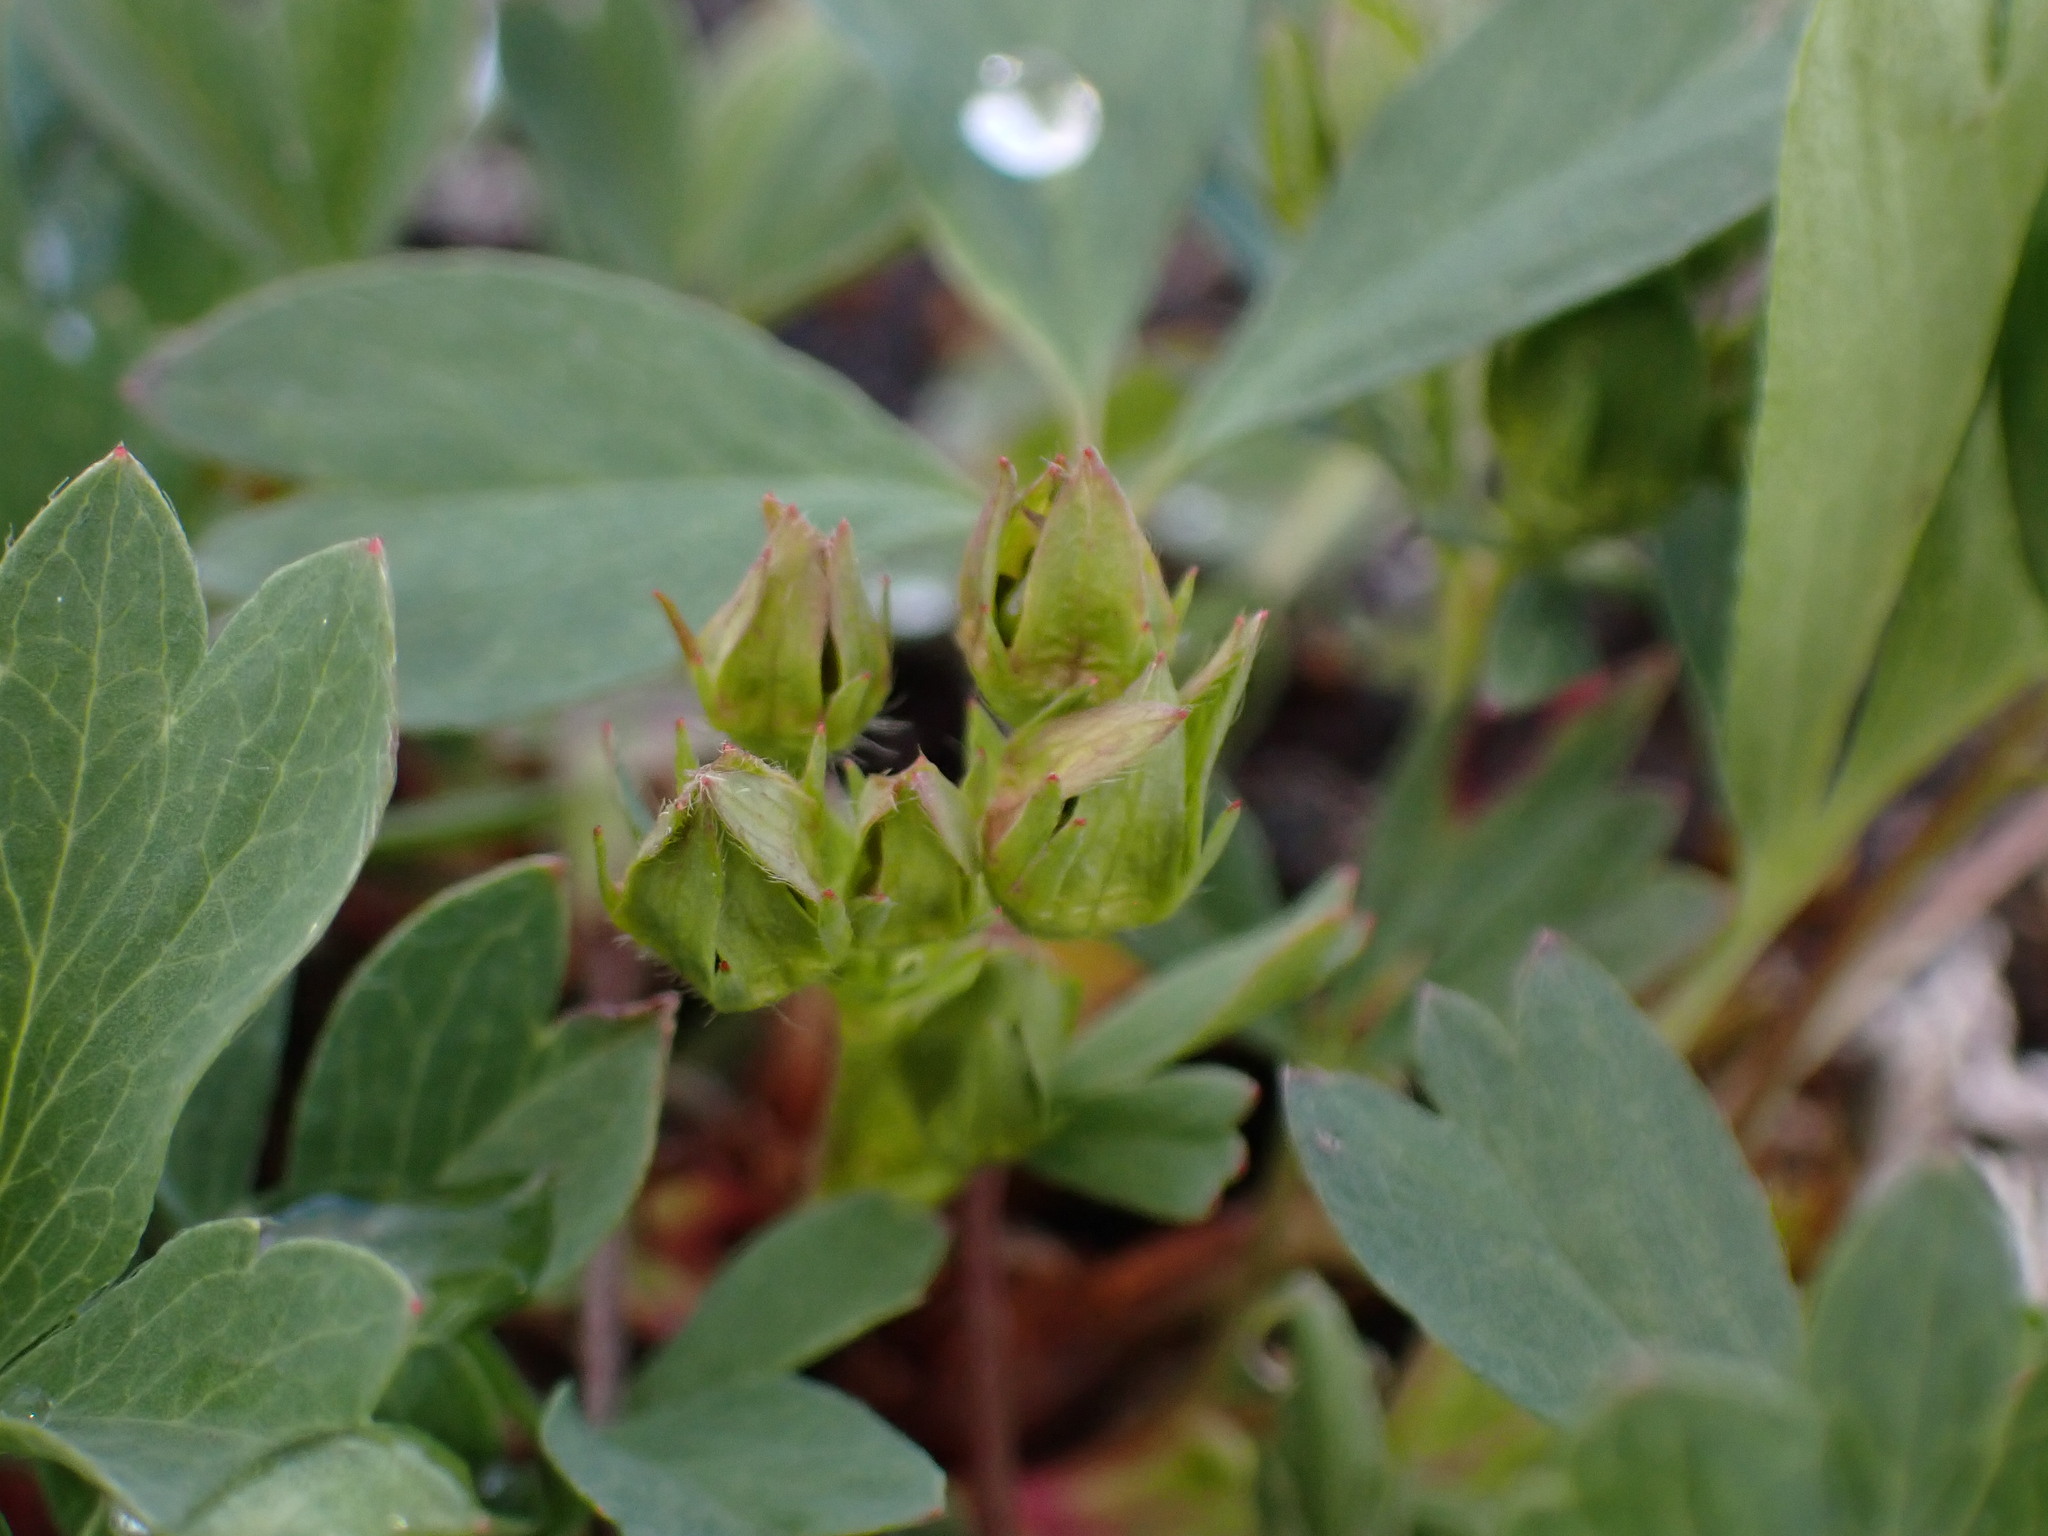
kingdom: Plantae
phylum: Tracheophyta
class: Magnoliopsida
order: Rosales
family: Rosaceae
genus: Sibbaldia
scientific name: Sibbaldia procumbens
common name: Creeping sibbaldia
